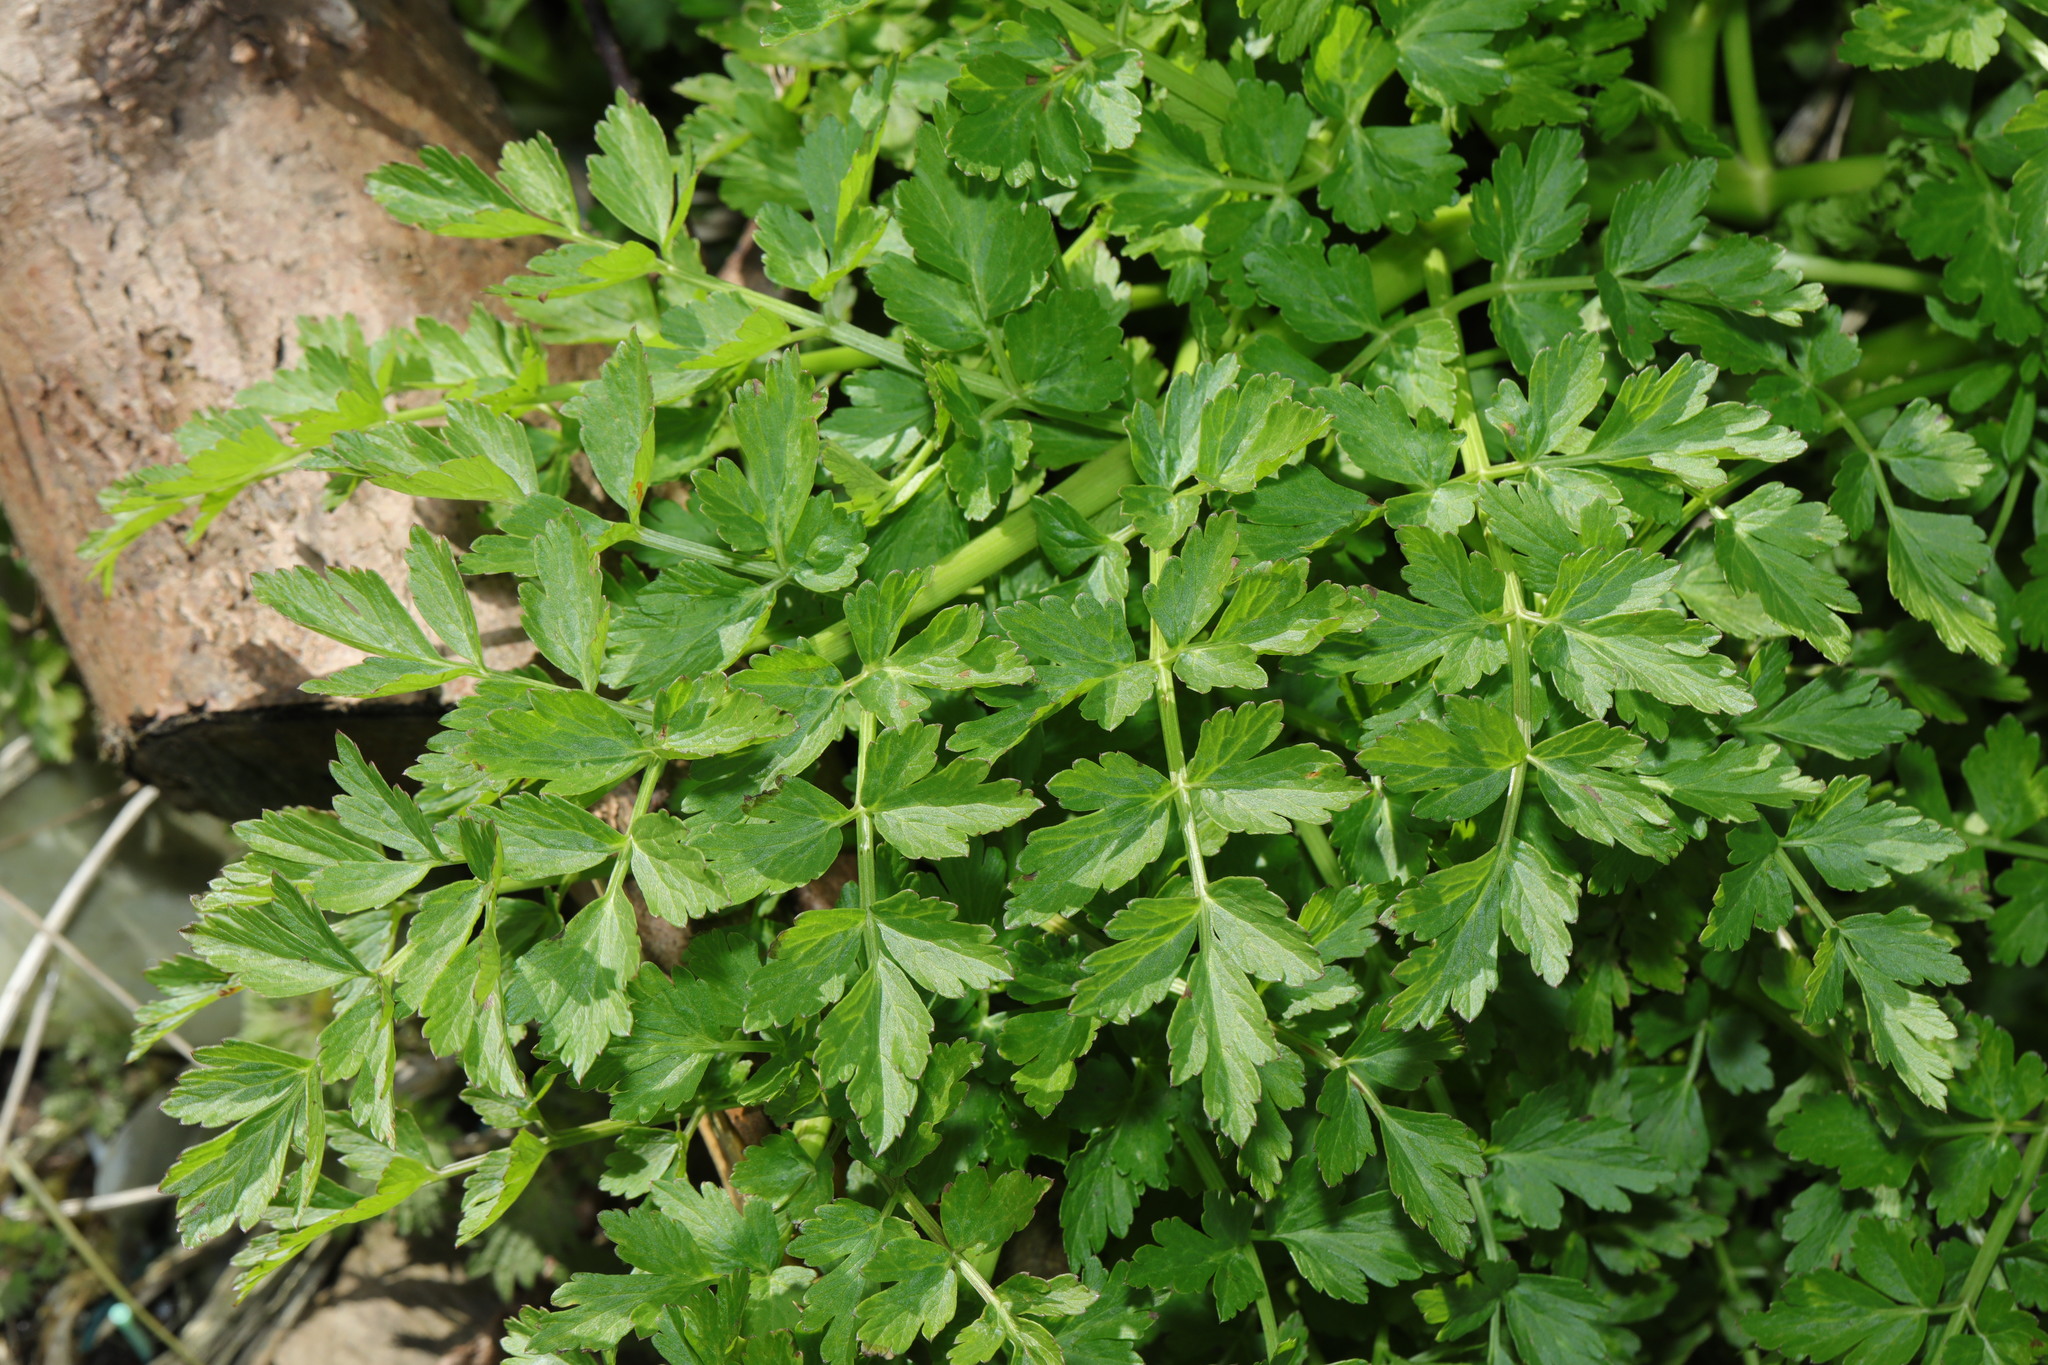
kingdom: Plantae
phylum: Tracheophyta
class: Magnoliopsida
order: Apiales
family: Apiaceae
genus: Oenanthe
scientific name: Oenanthe crocata
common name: Hemlock water-dropwort
